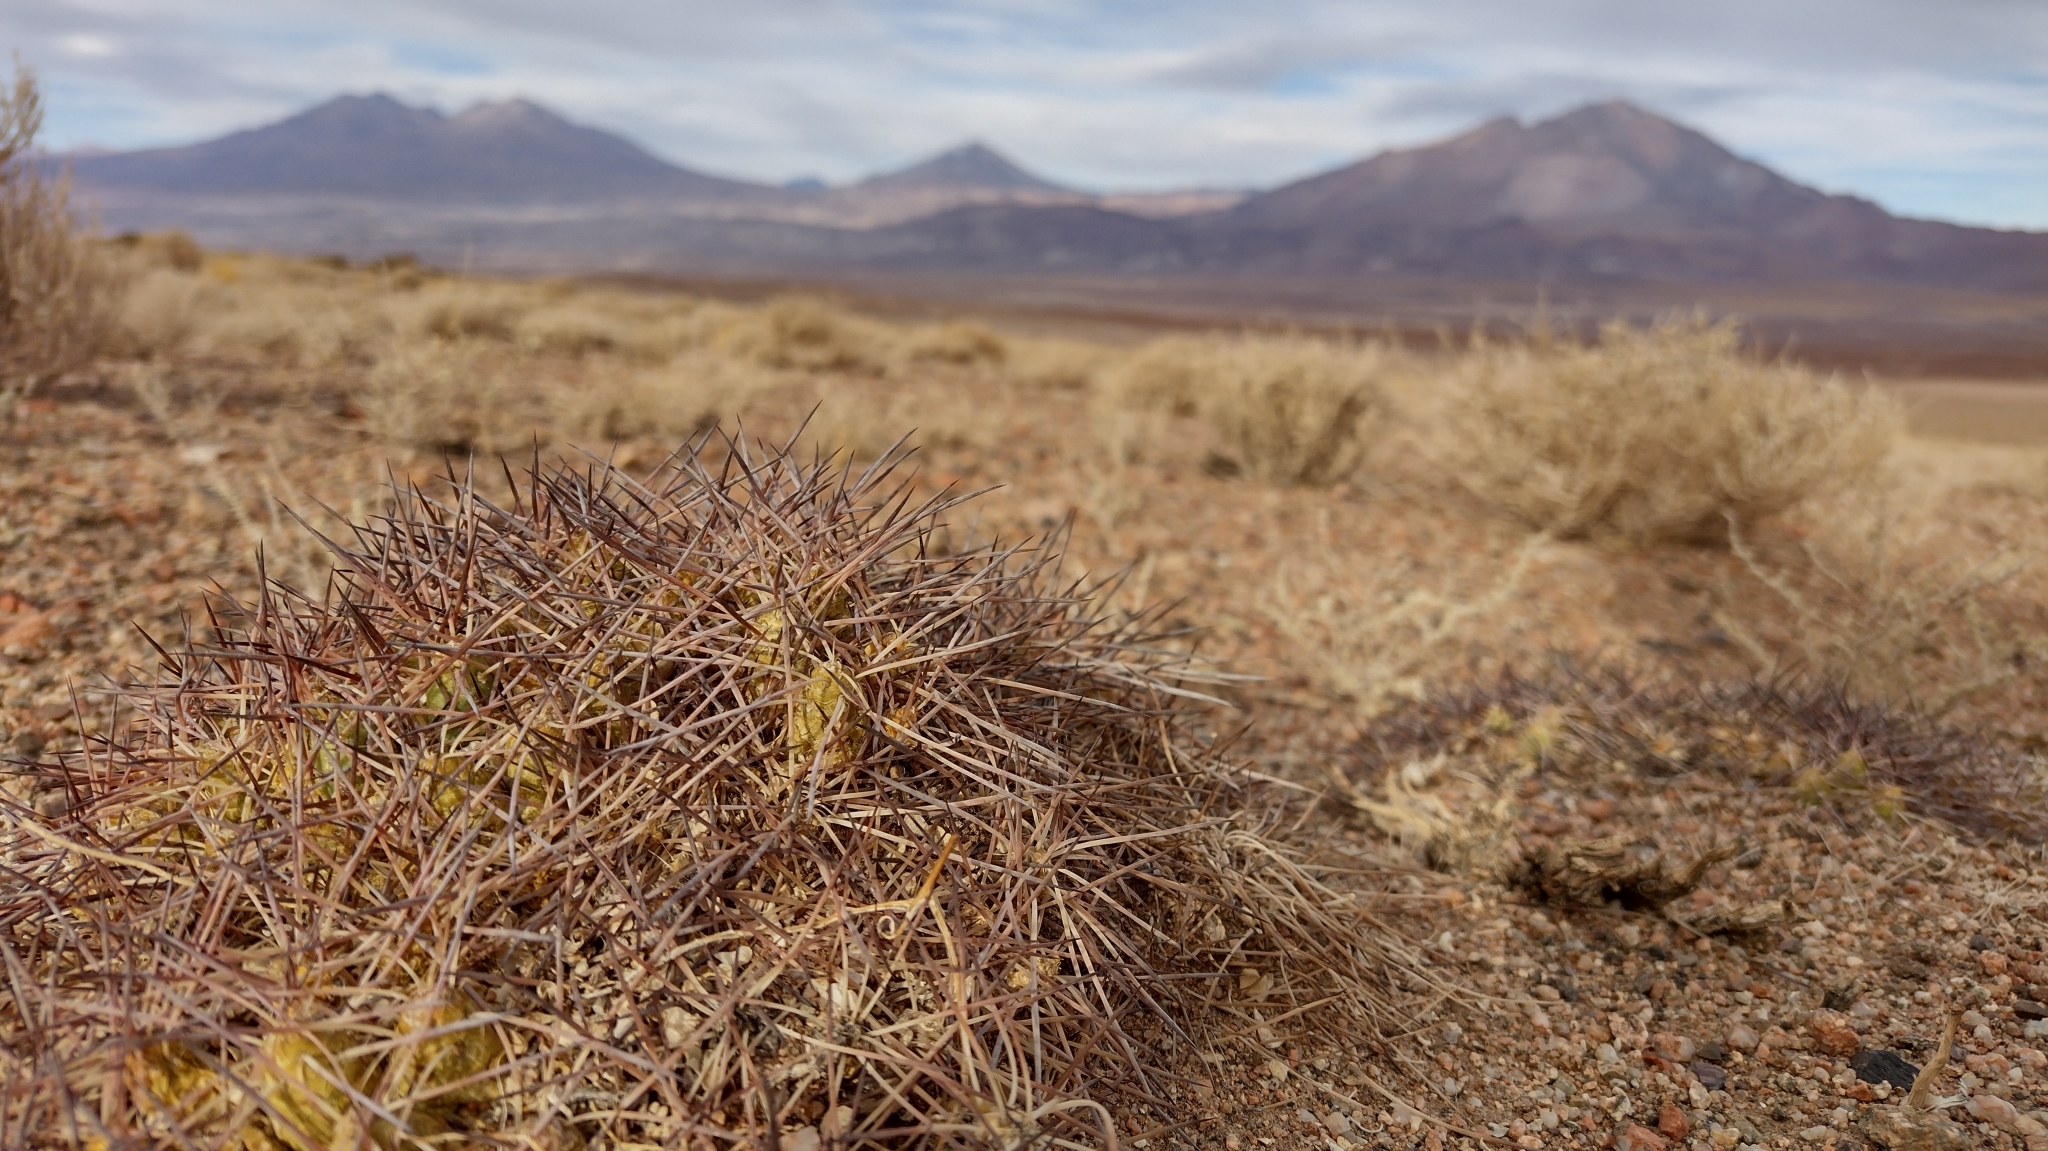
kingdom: Plantae
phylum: Tracheophyta
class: Magnoliopsida
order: Caryophyllales
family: Cactaceae
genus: Maihueniopsis
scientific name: Maihueniopsis atacamensis
